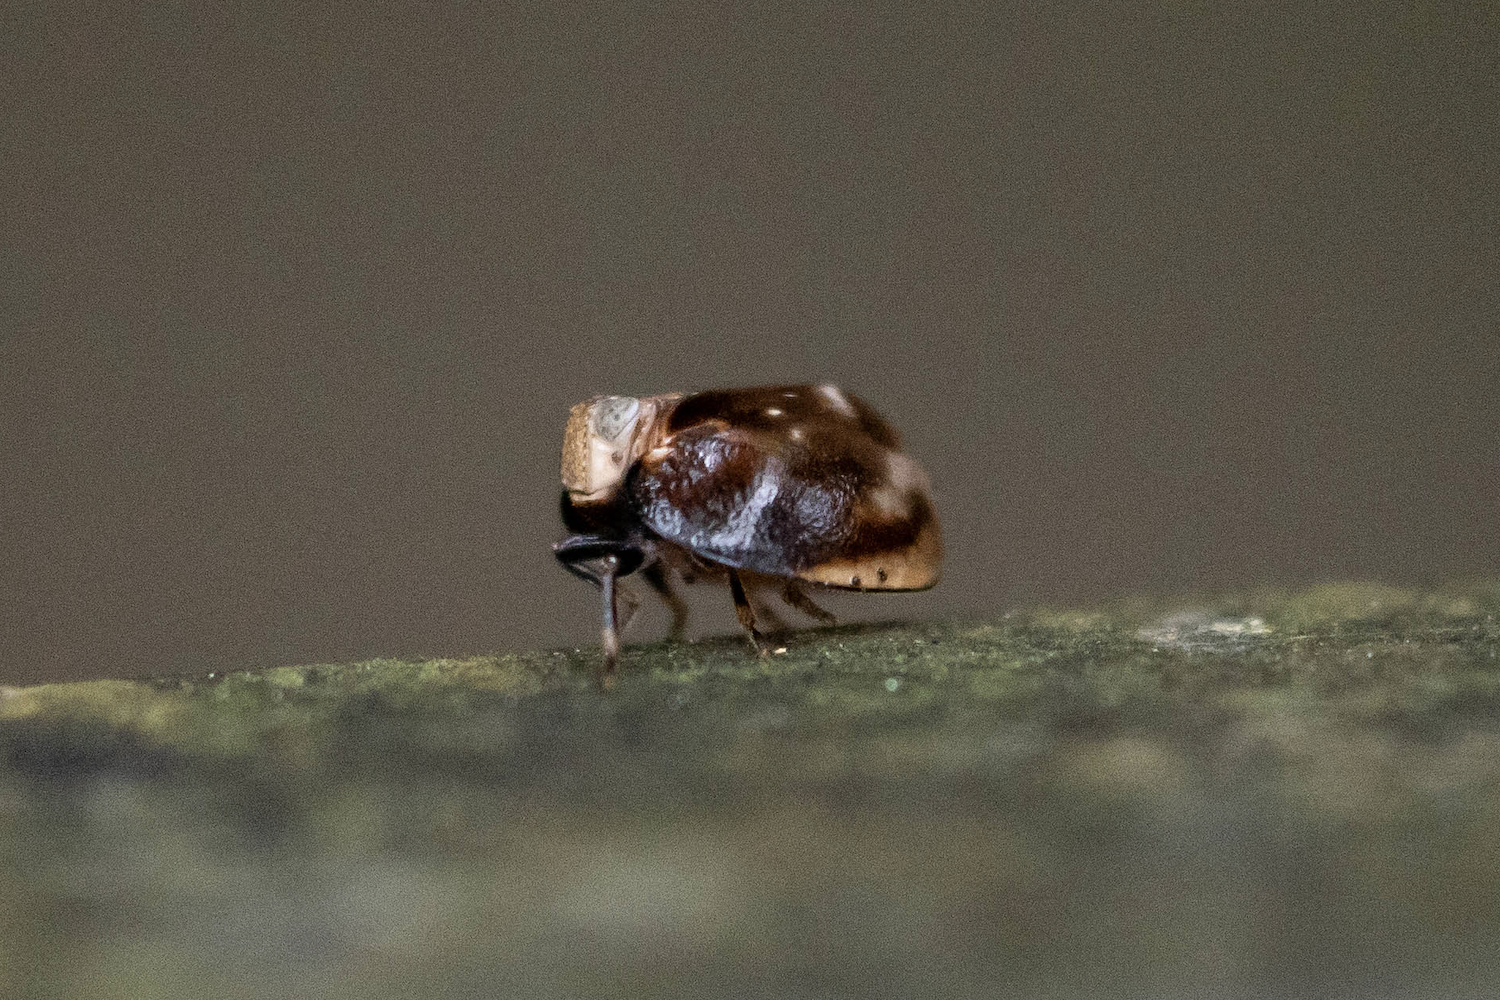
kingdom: Animalia
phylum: Arthropoda
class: Insecta
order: Hemiptera
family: Issidae
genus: Mongoliana
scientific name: Mongoliana recurrens
